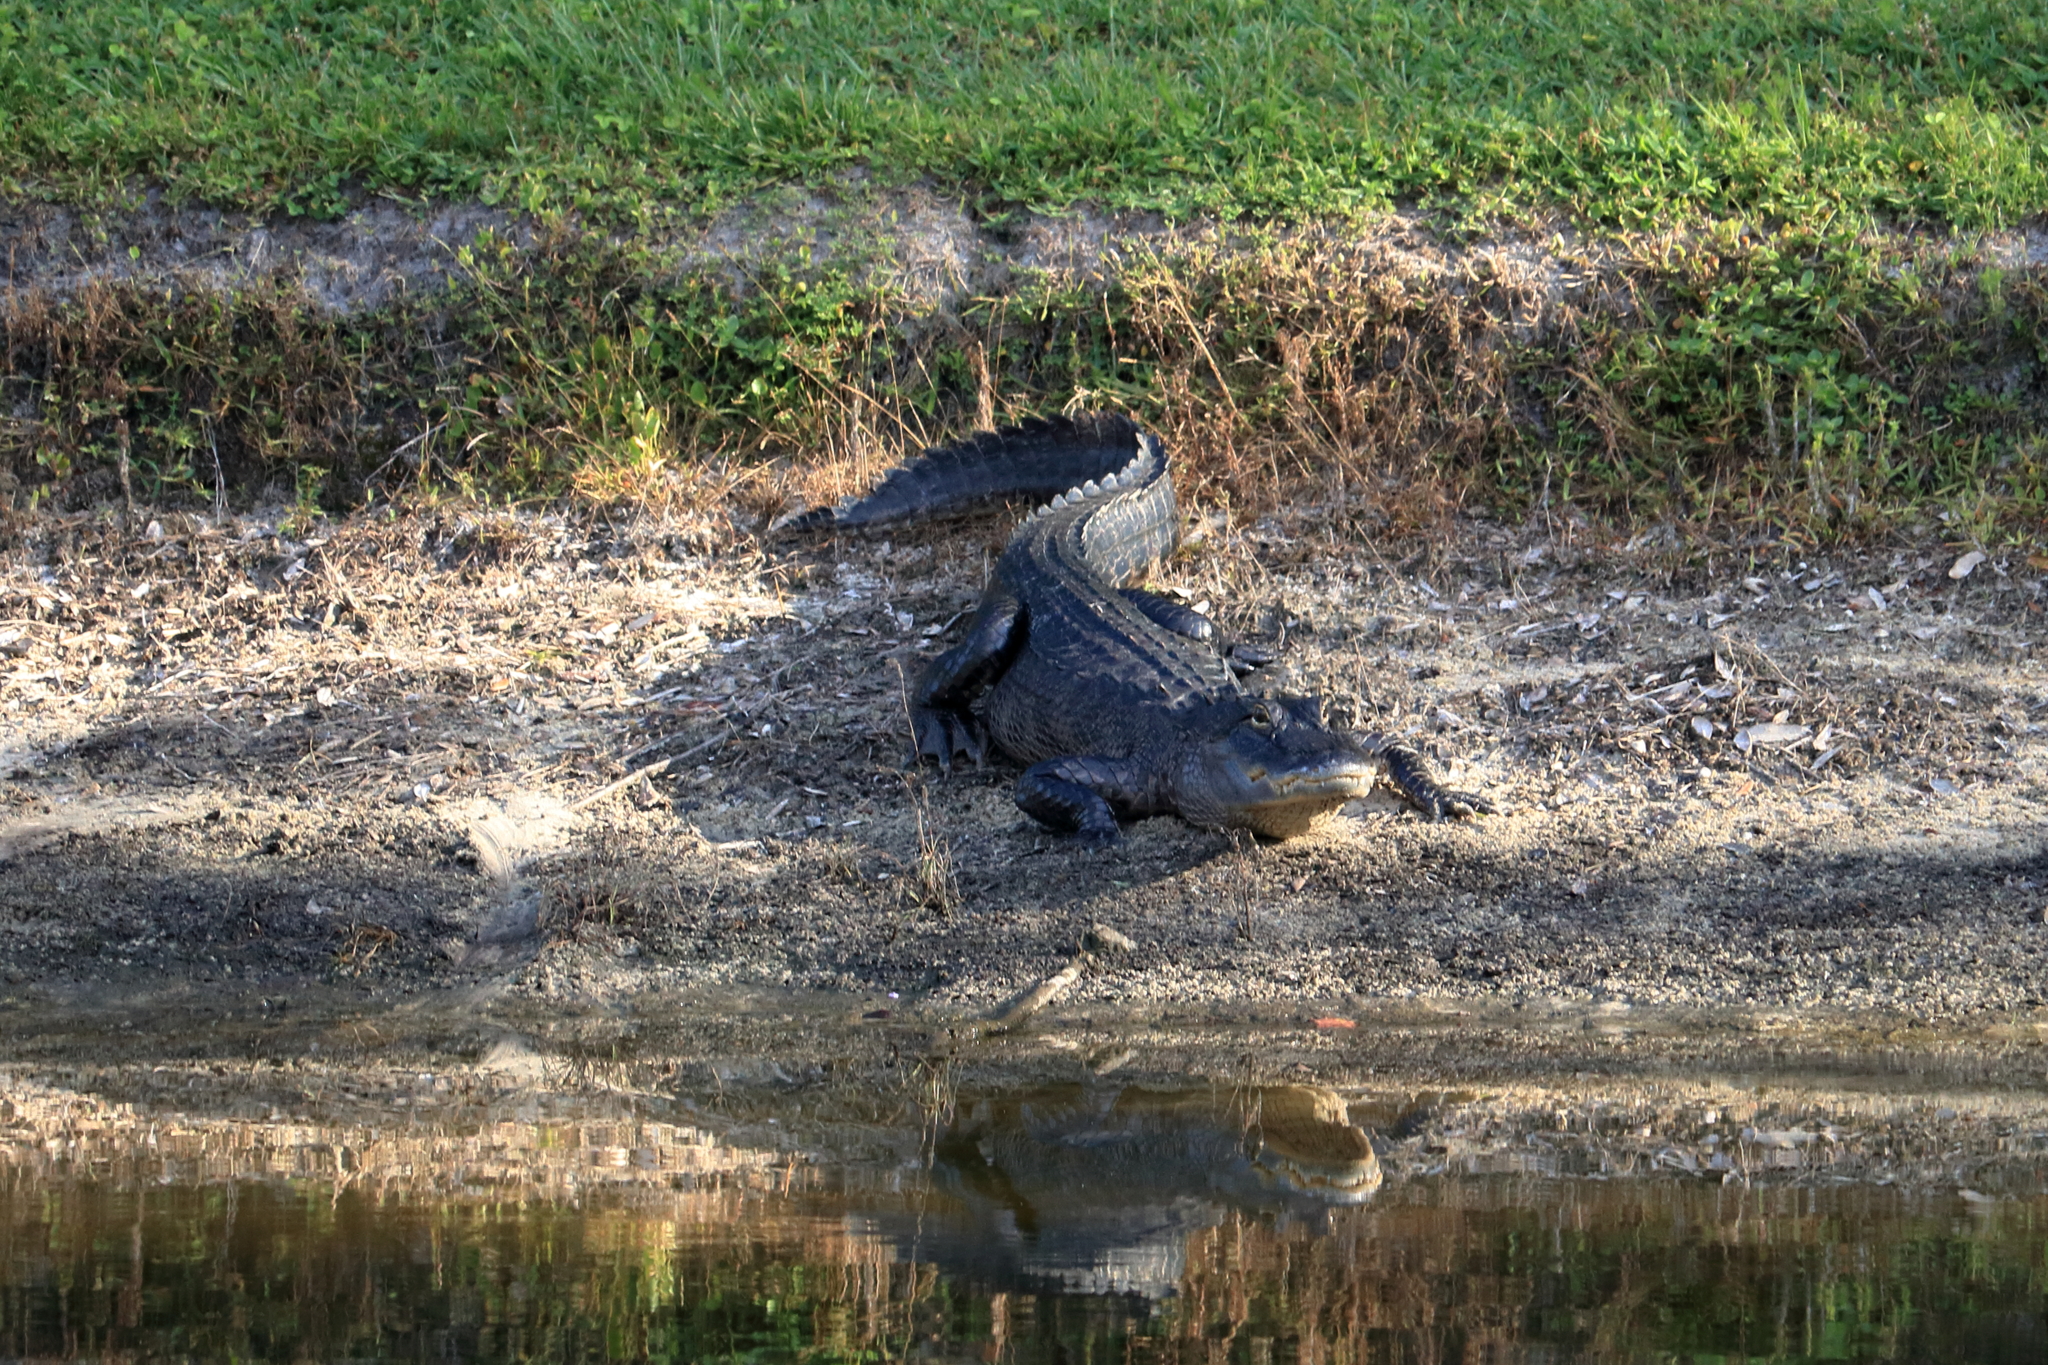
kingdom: Animalia
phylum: Chordata
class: Crocodylia
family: Alligatoridae
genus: Alligator
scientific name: Alligator mississippiensis
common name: American alligator
